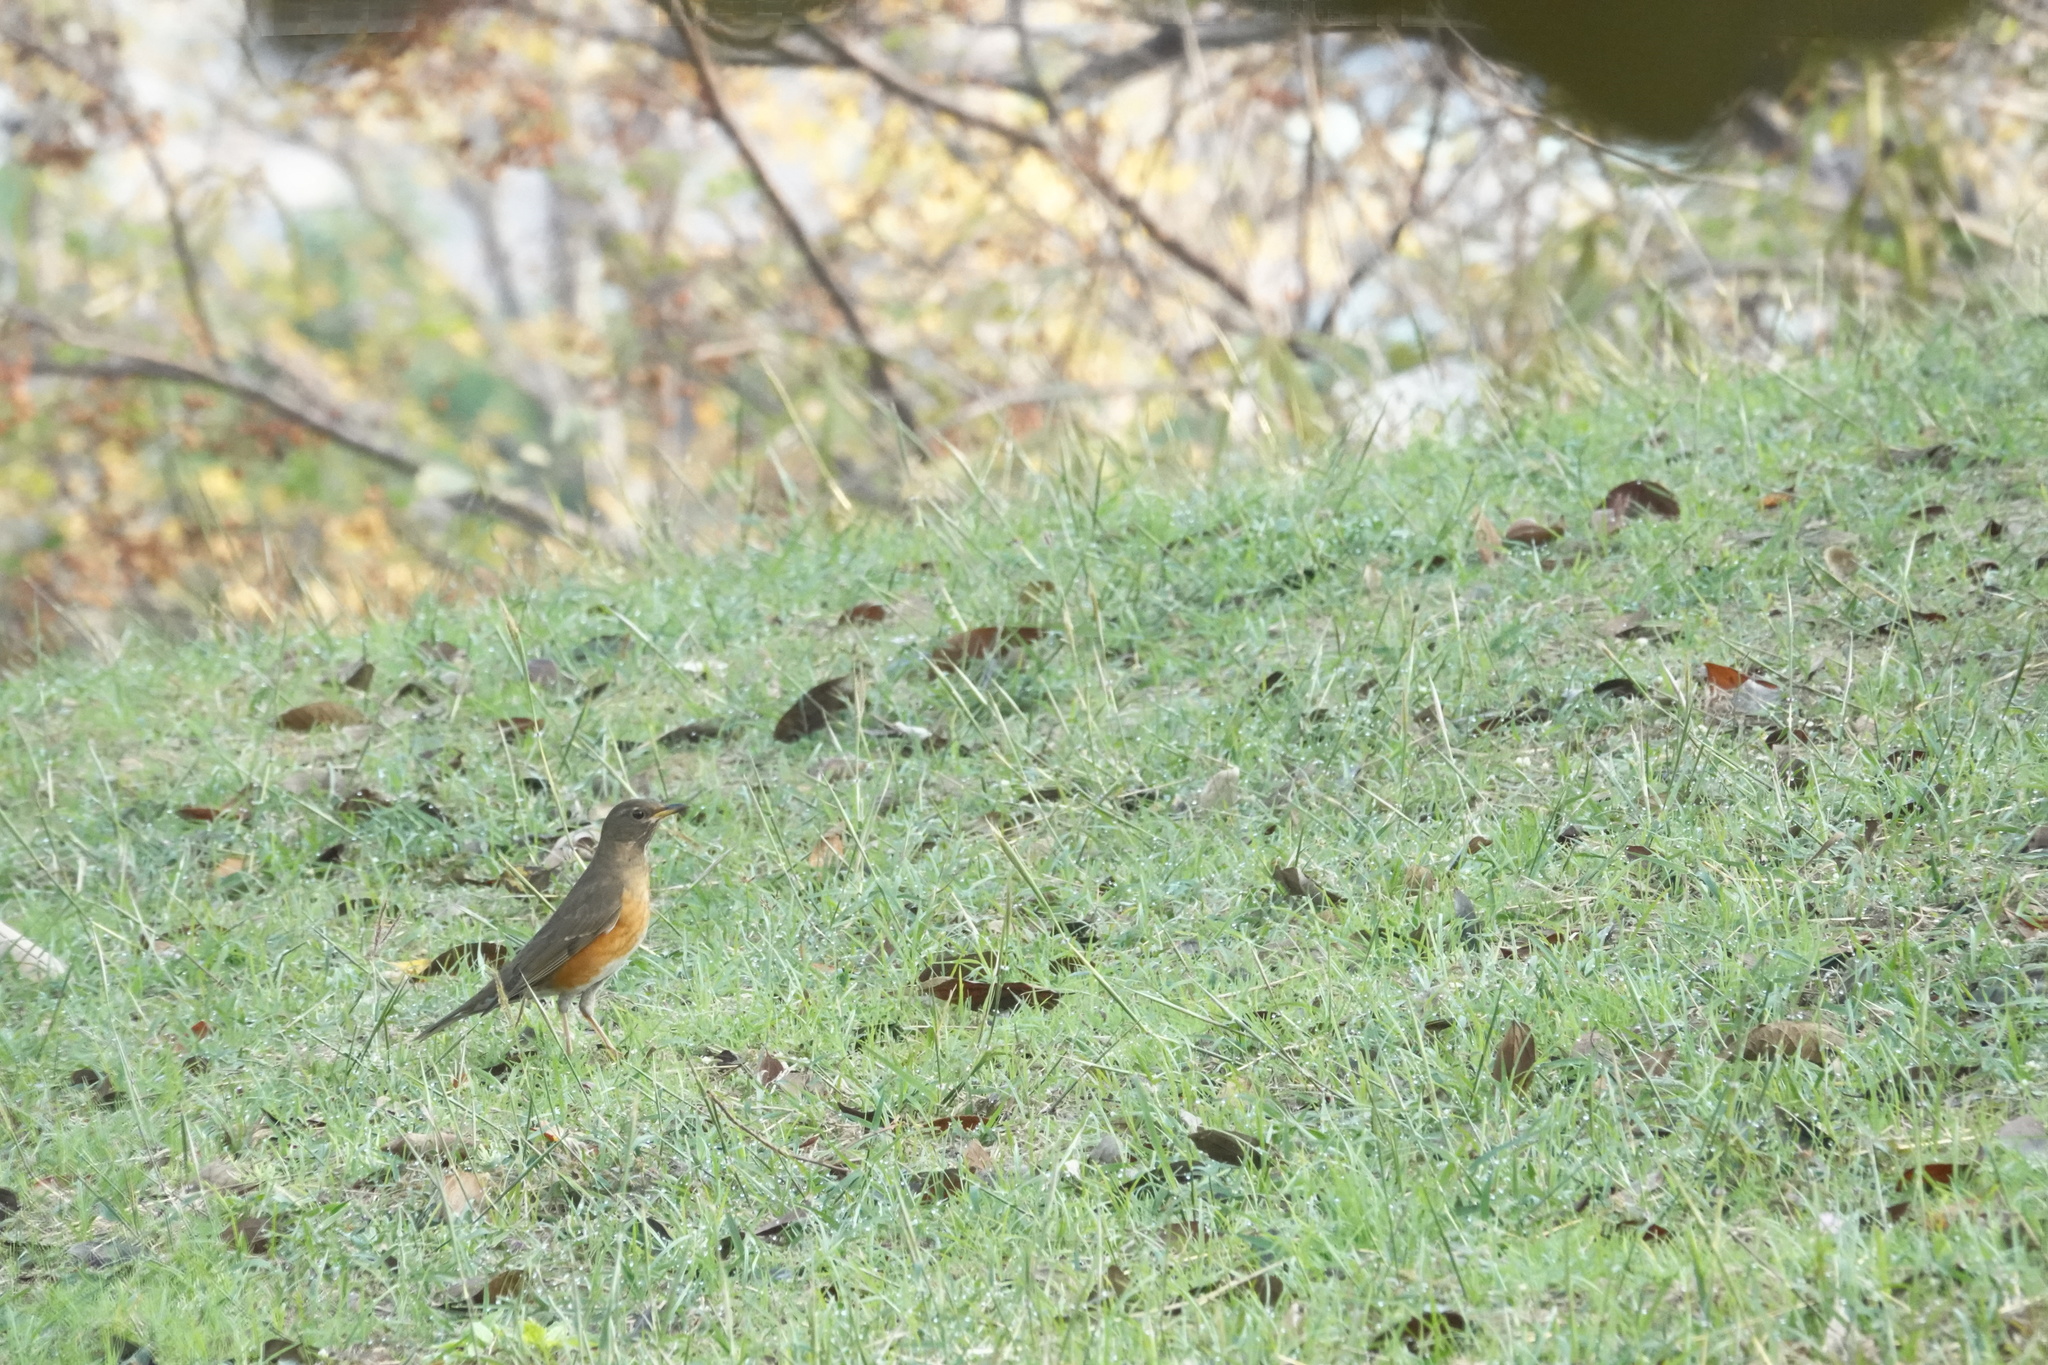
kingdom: Animalia
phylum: Chordata
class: Aves
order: Passeriformes
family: Turdidae
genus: Turdus
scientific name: Turdus chrysolaus
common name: Brown-headed thrush
